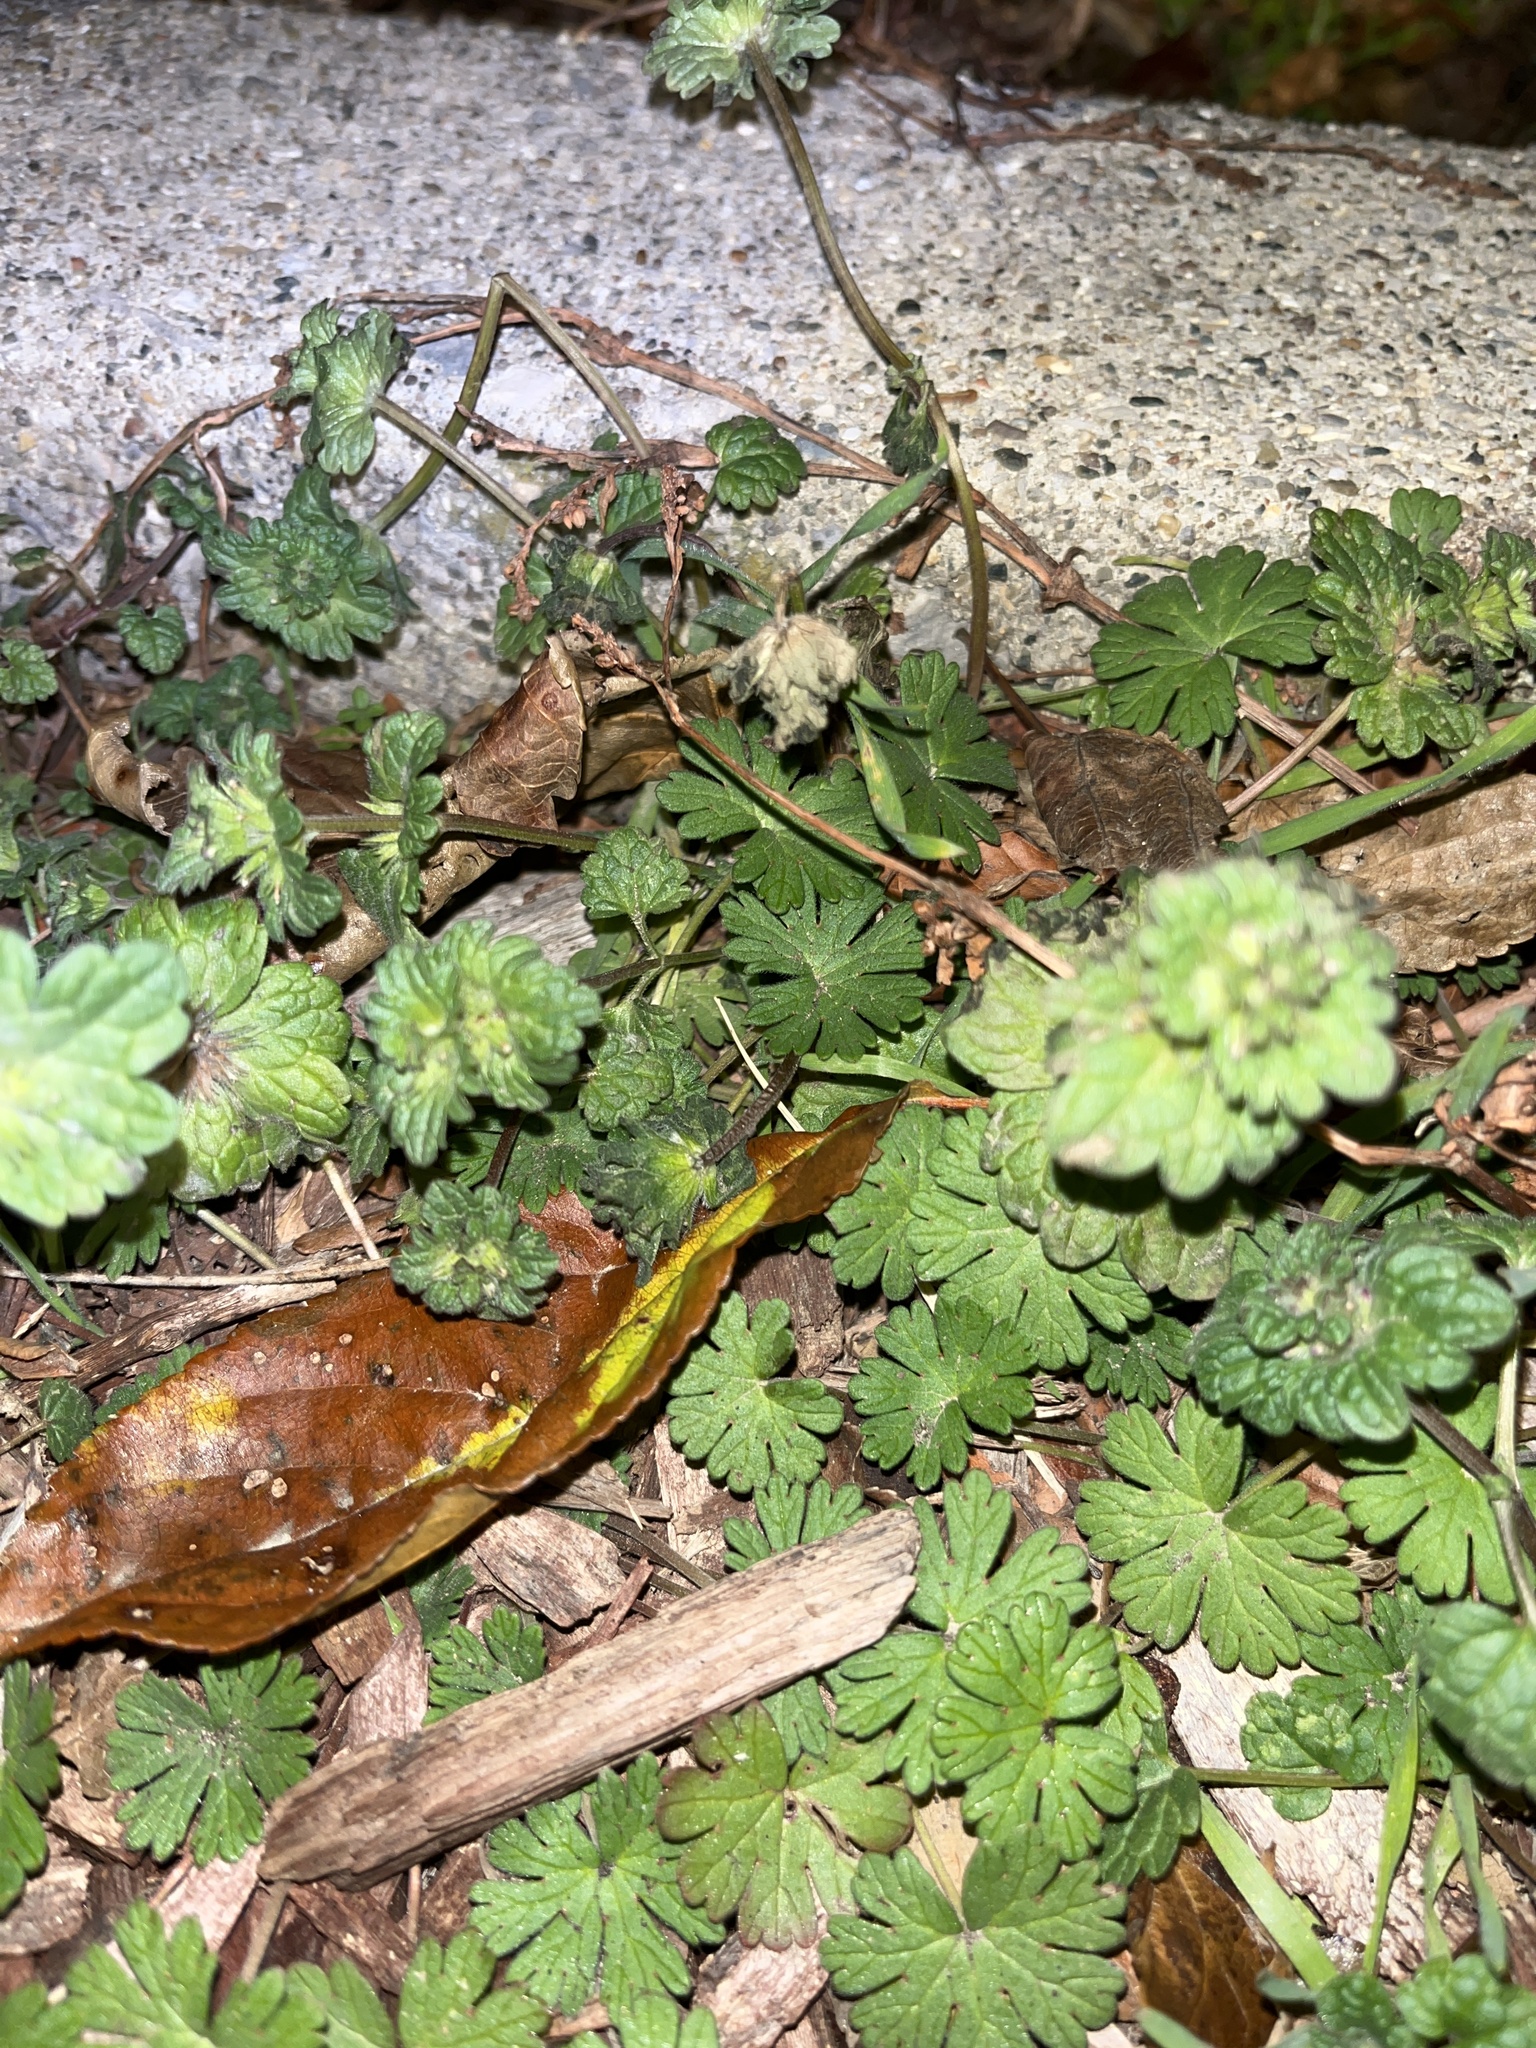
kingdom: Plantae
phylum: Tracheophyta
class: Magnoliopsida
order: Lamiales
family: Lamiaceae
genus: Lamium
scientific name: Lamium amplexicaule
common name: Henbit dead-nettle
